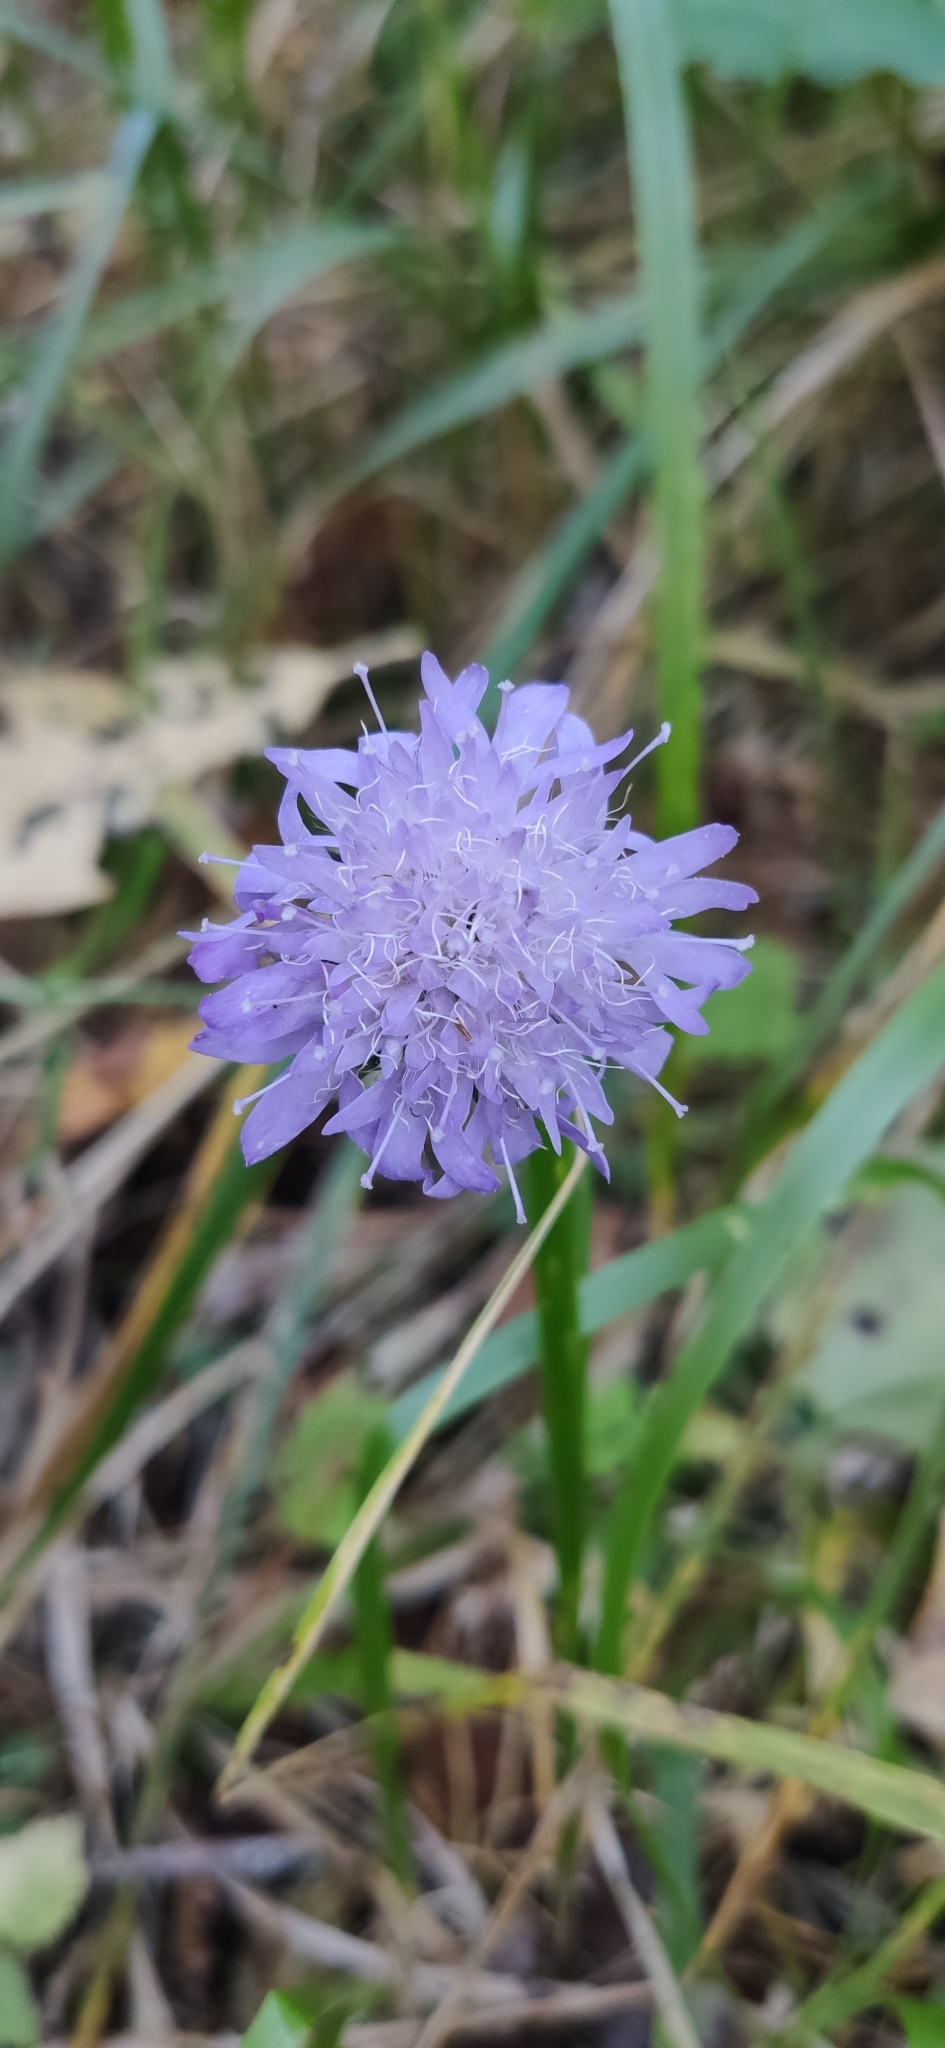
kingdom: Plantae
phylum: Tracheophyta
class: Magnoliopsida
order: Dipsacales
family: Caprifoliaceae
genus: Knautia
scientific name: Knautia arvensis
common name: Field scabiosa
